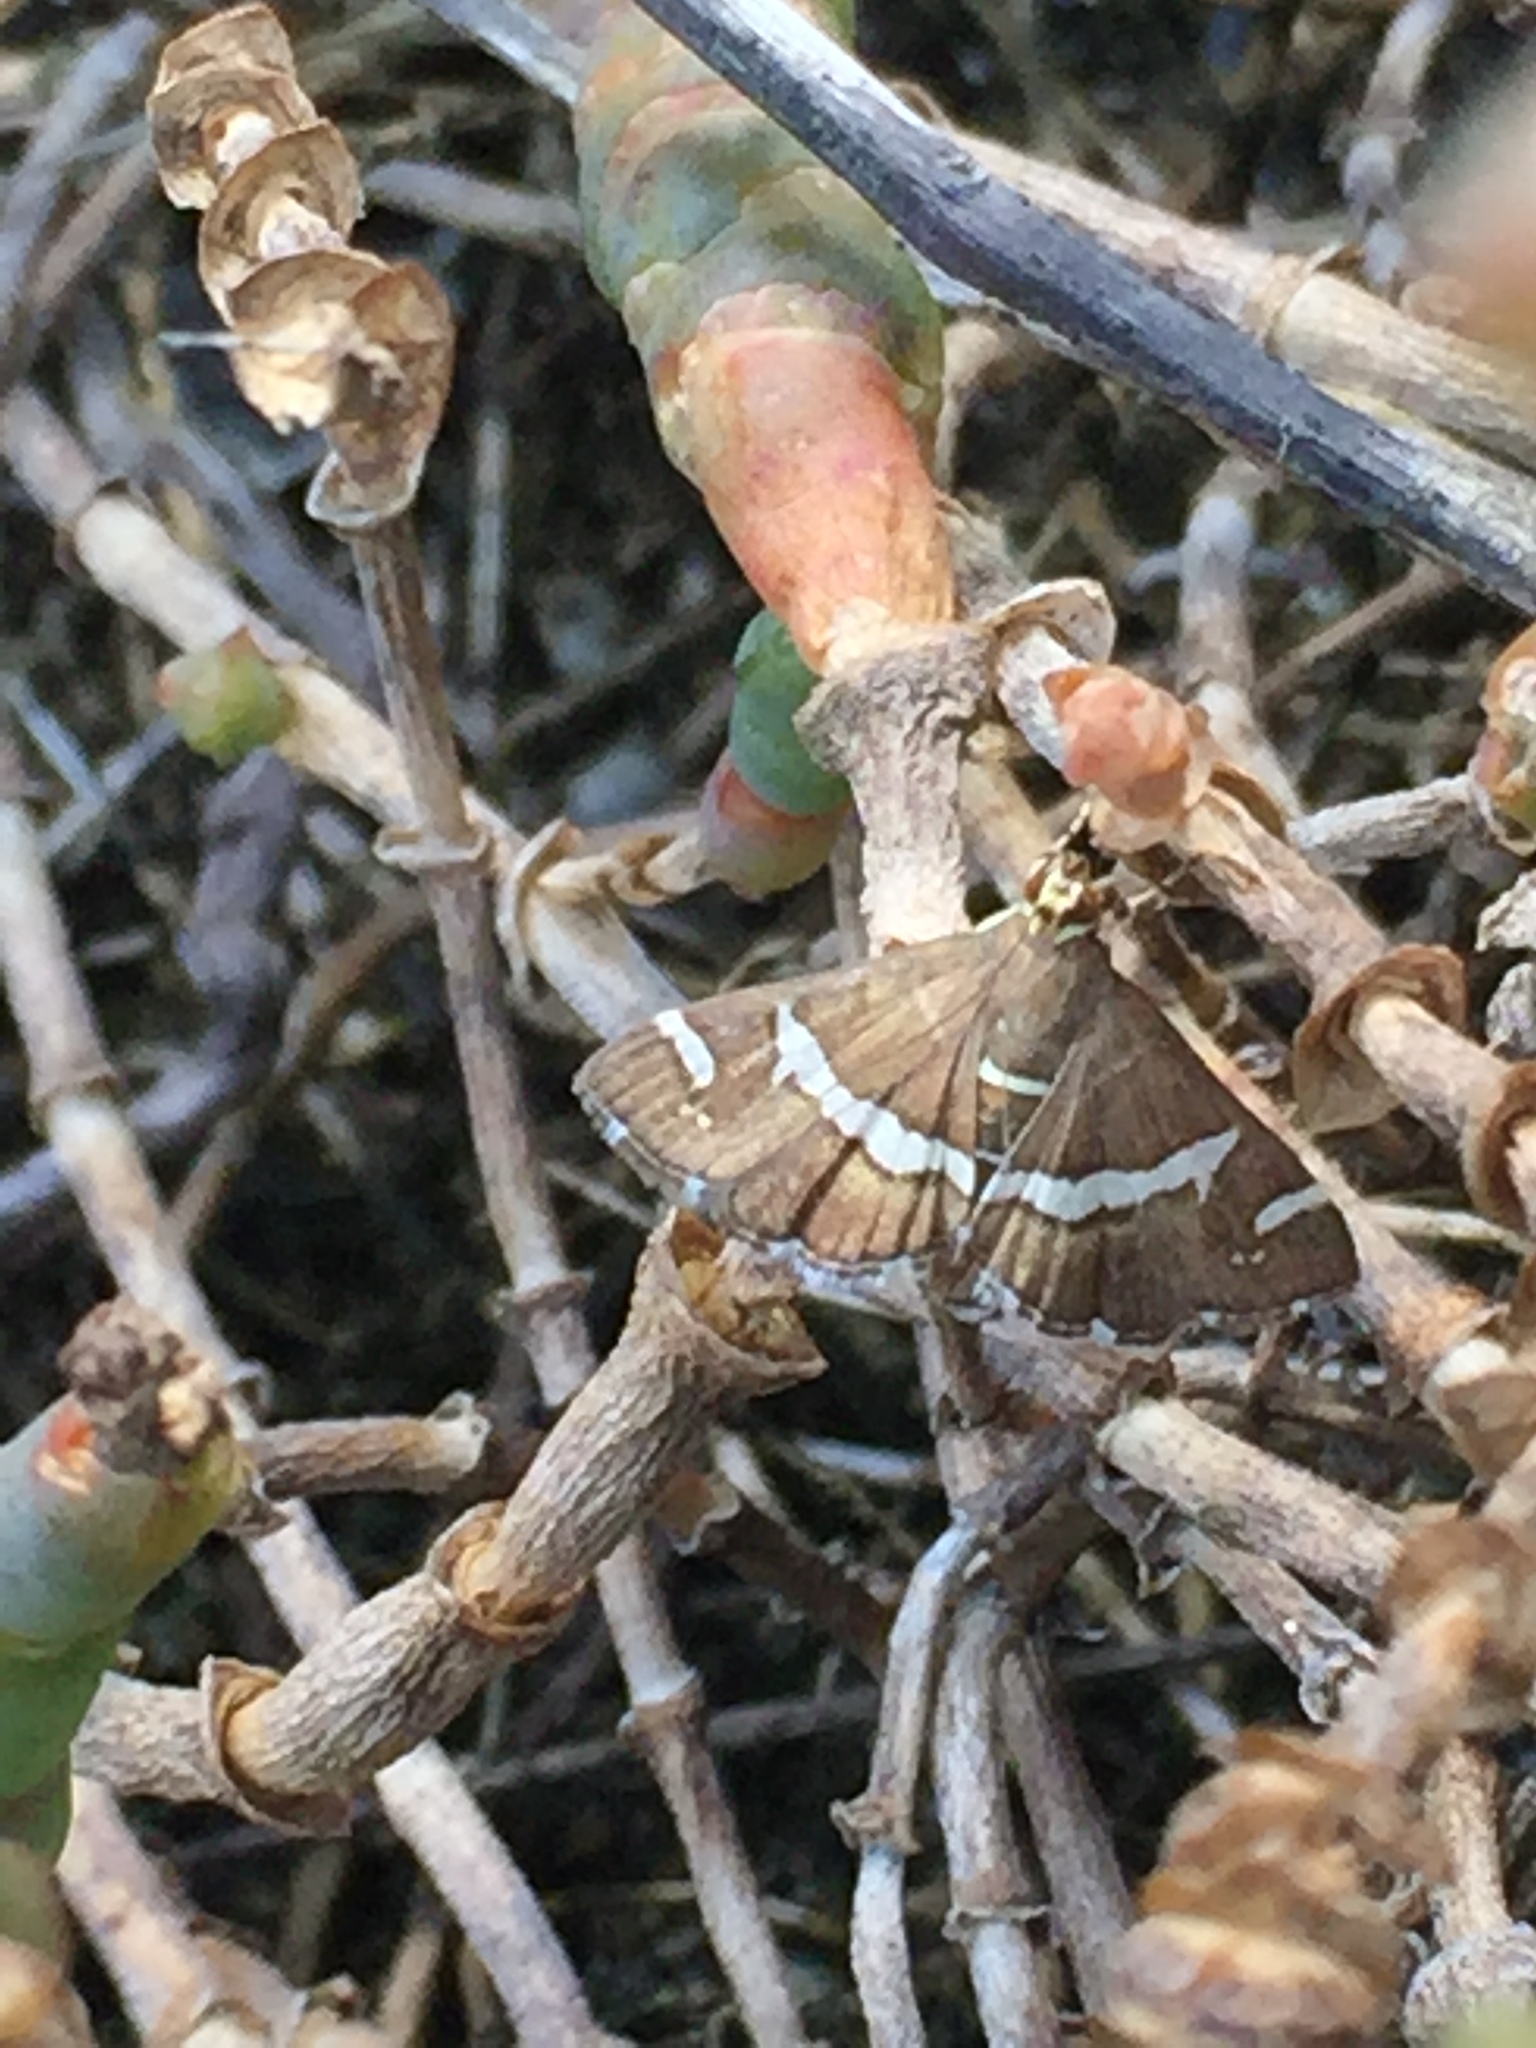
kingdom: Animalia
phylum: Arthropoda
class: Insecta
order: Lepidoptera
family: Crambidae
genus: Spoladea
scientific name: Spoladea recurvalis
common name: Beet webworm moth
